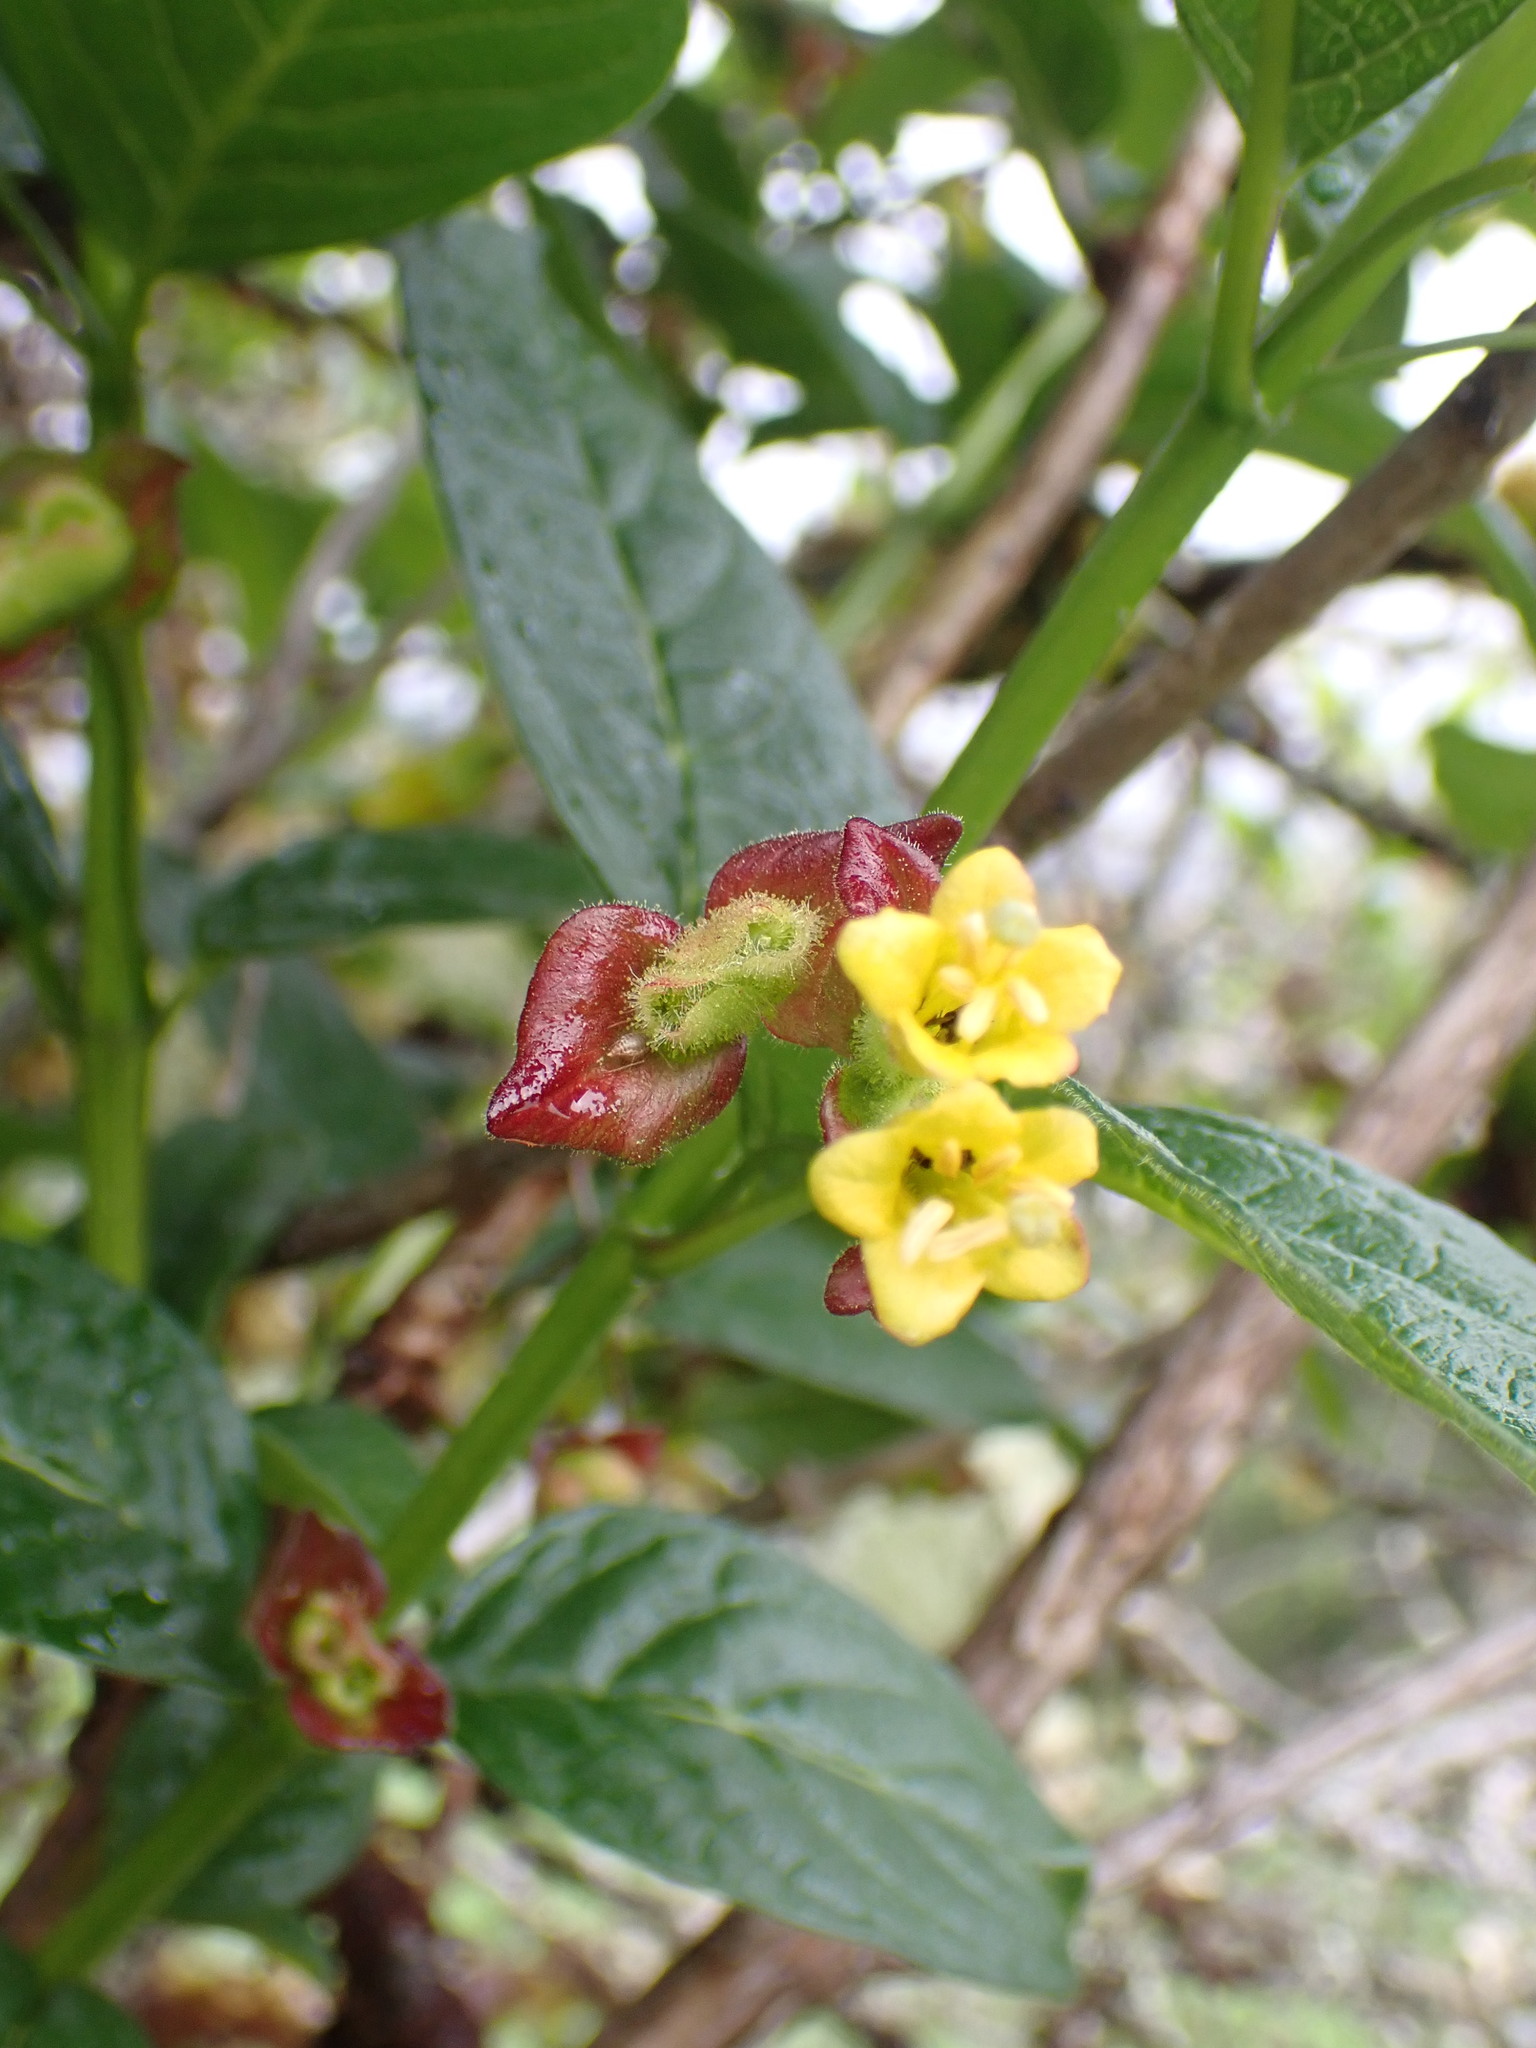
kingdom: Plantae
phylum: Tracheophyta
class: Magnoliopsida
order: Dipsacales
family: Caprifoliaceae
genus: Lonicera
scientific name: Lonicera involucrata
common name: Californian honeysuckle
